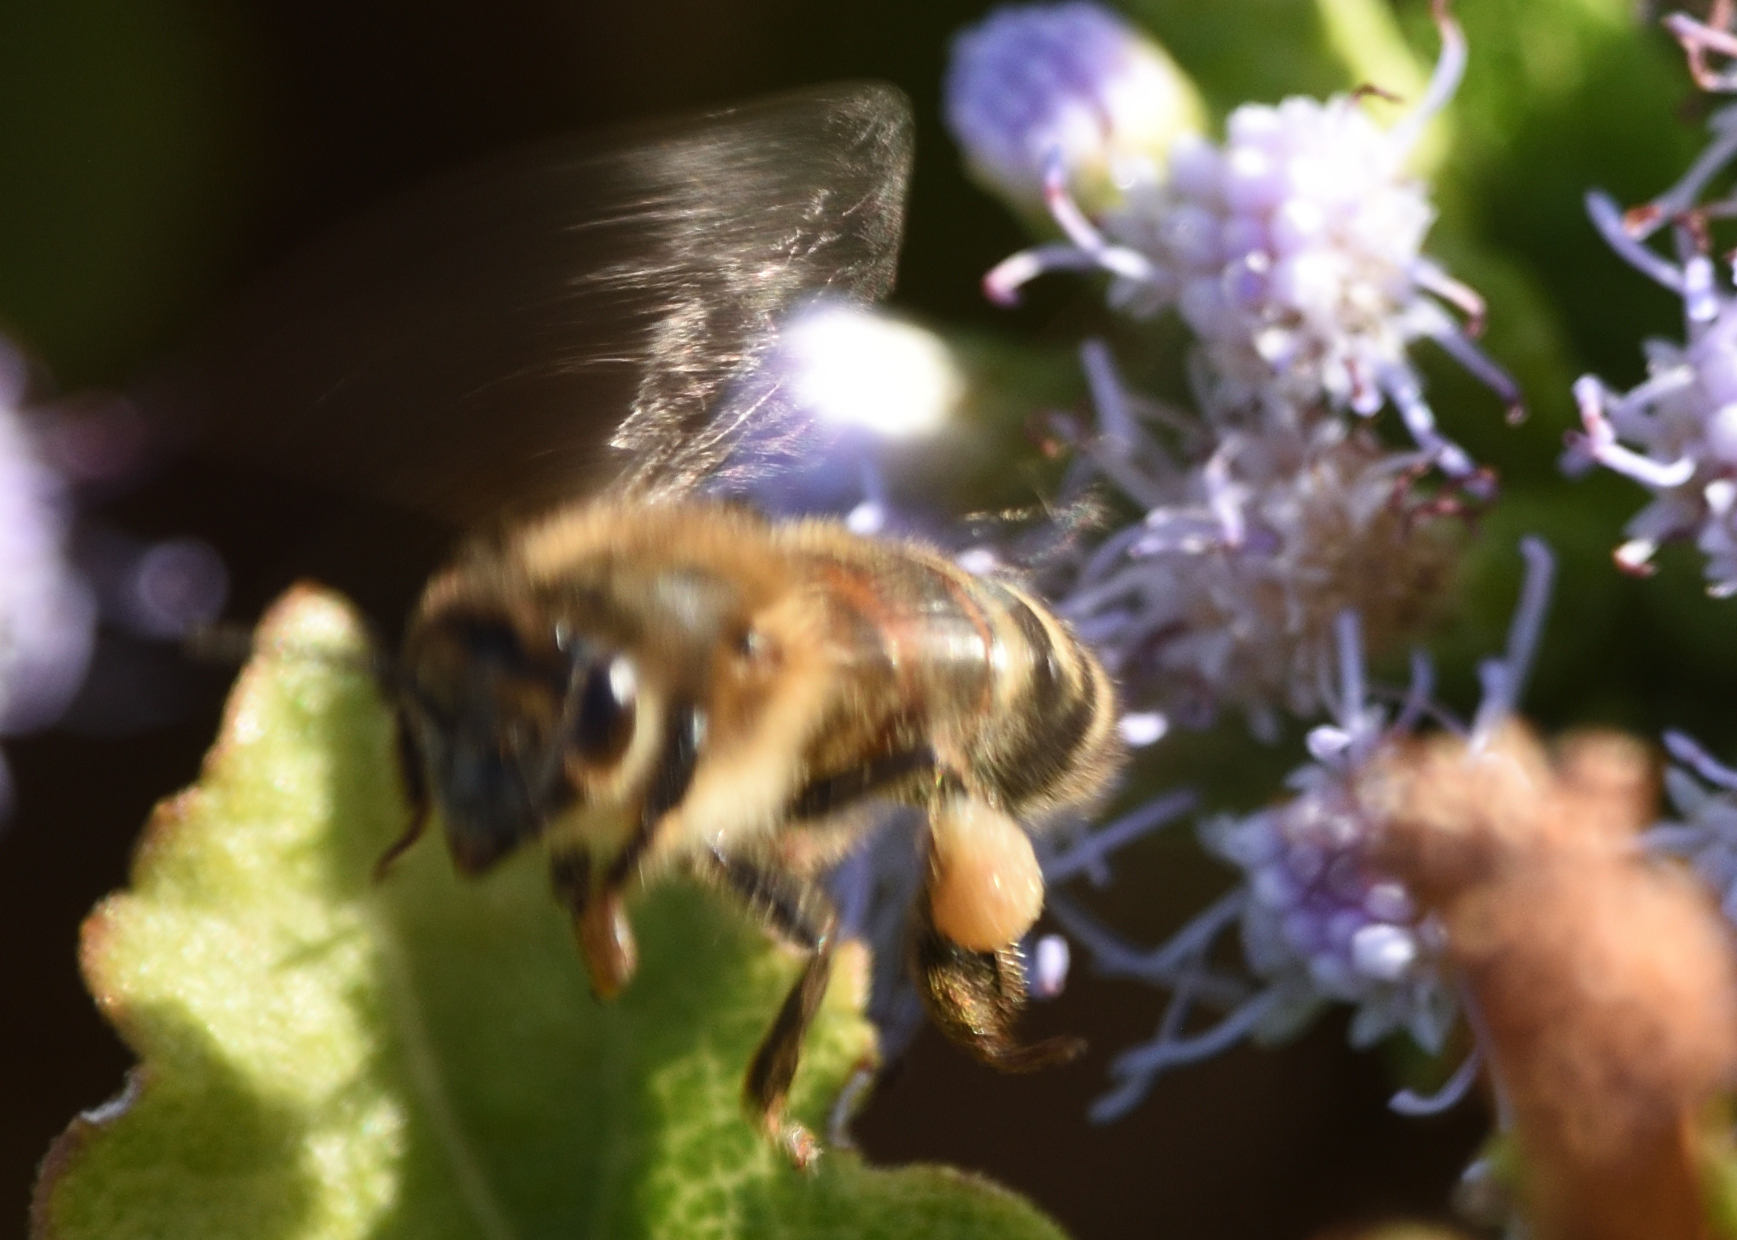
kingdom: Animalia
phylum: Arthropoda
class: Insecta
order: Hymenoptera
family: Apidae
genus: Apis
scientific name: Apis mellifera
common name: Honey bee
